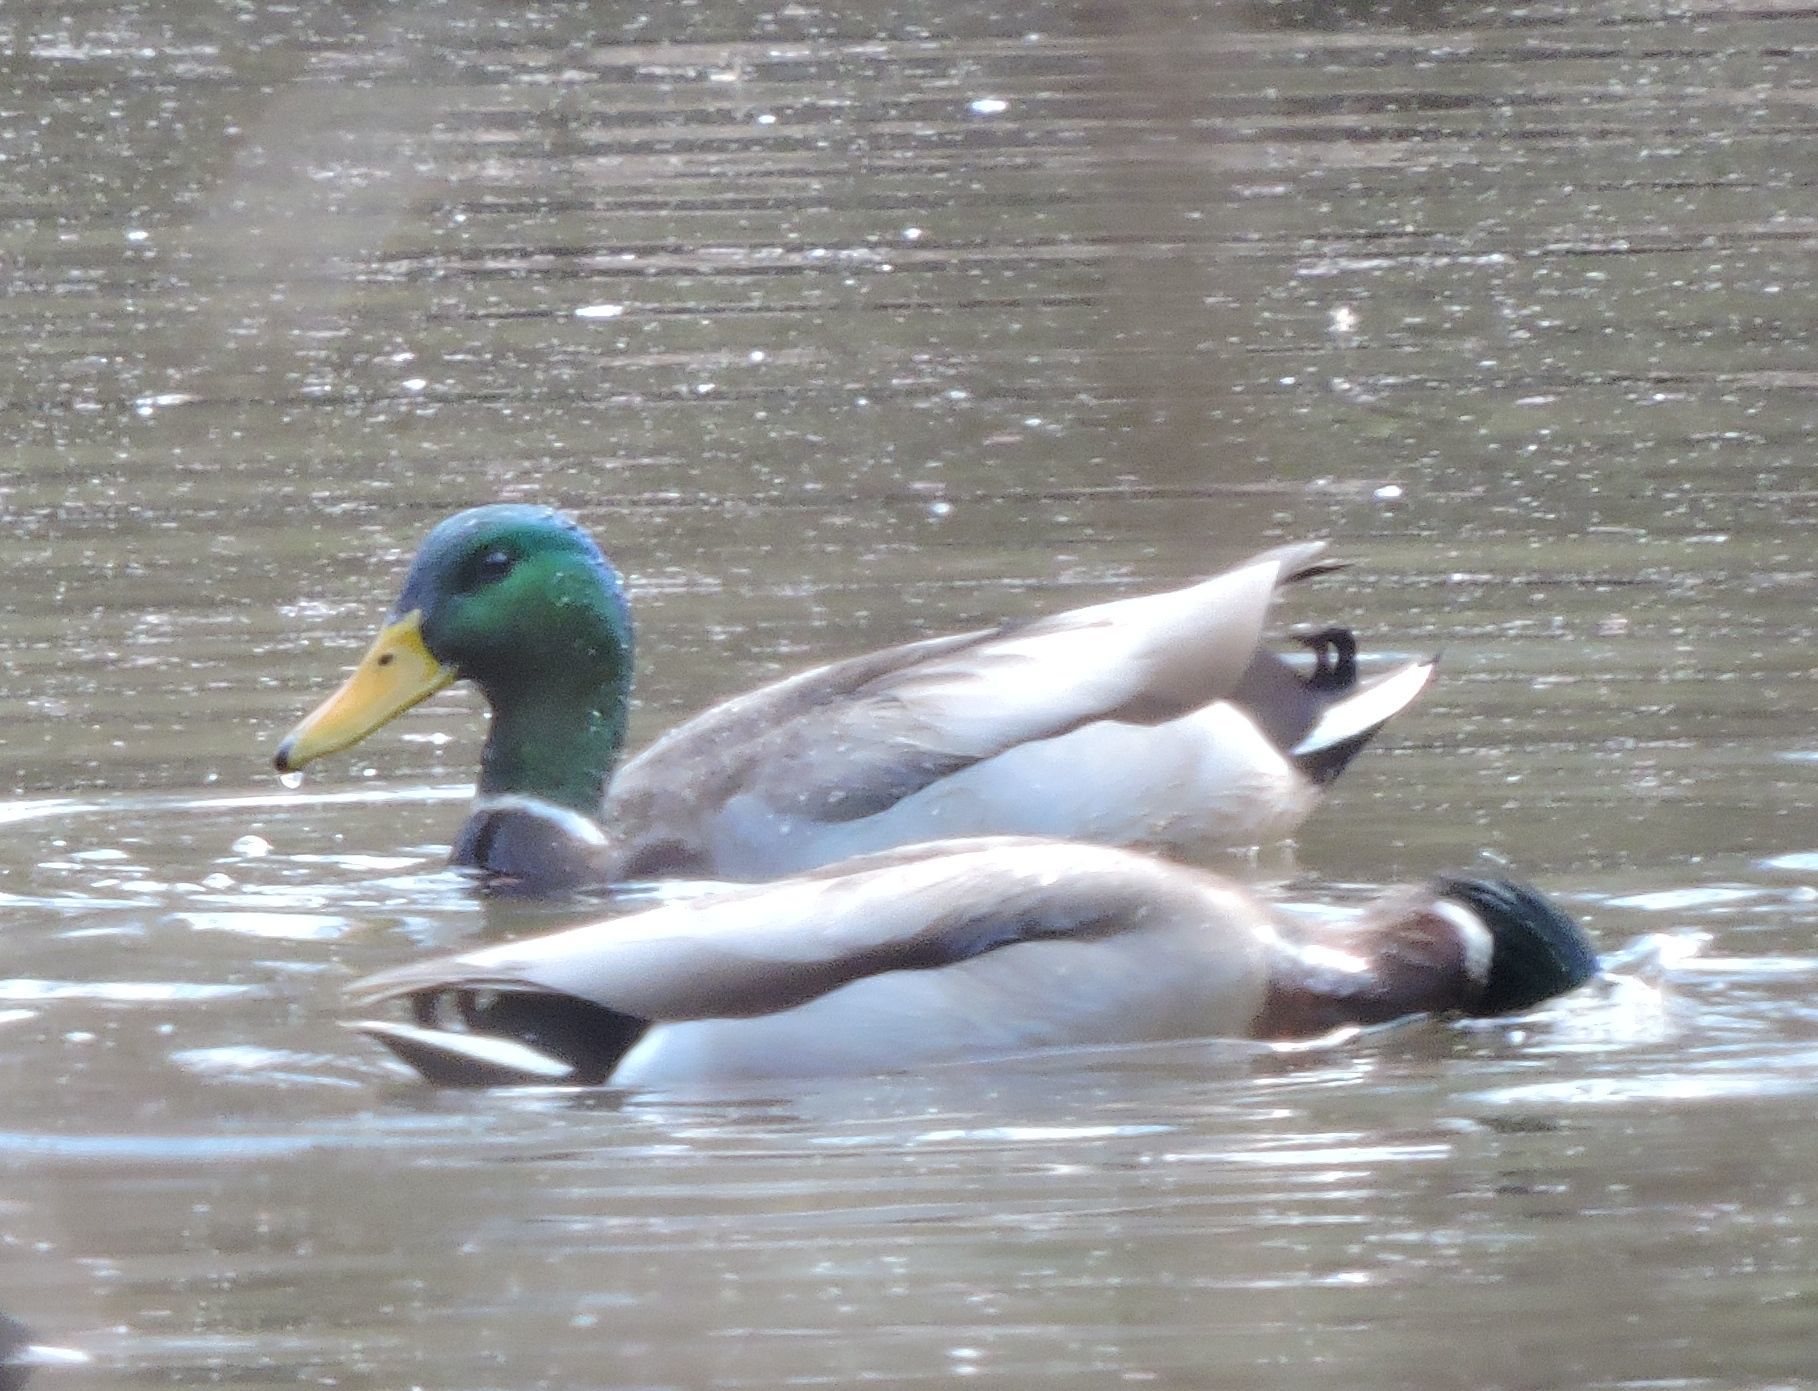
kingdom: Animalia
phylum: Chordata
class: Aves
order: Anseriformes
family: Anatidae
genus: Anas
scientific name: Anas platyrhynchos
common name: Mallard
